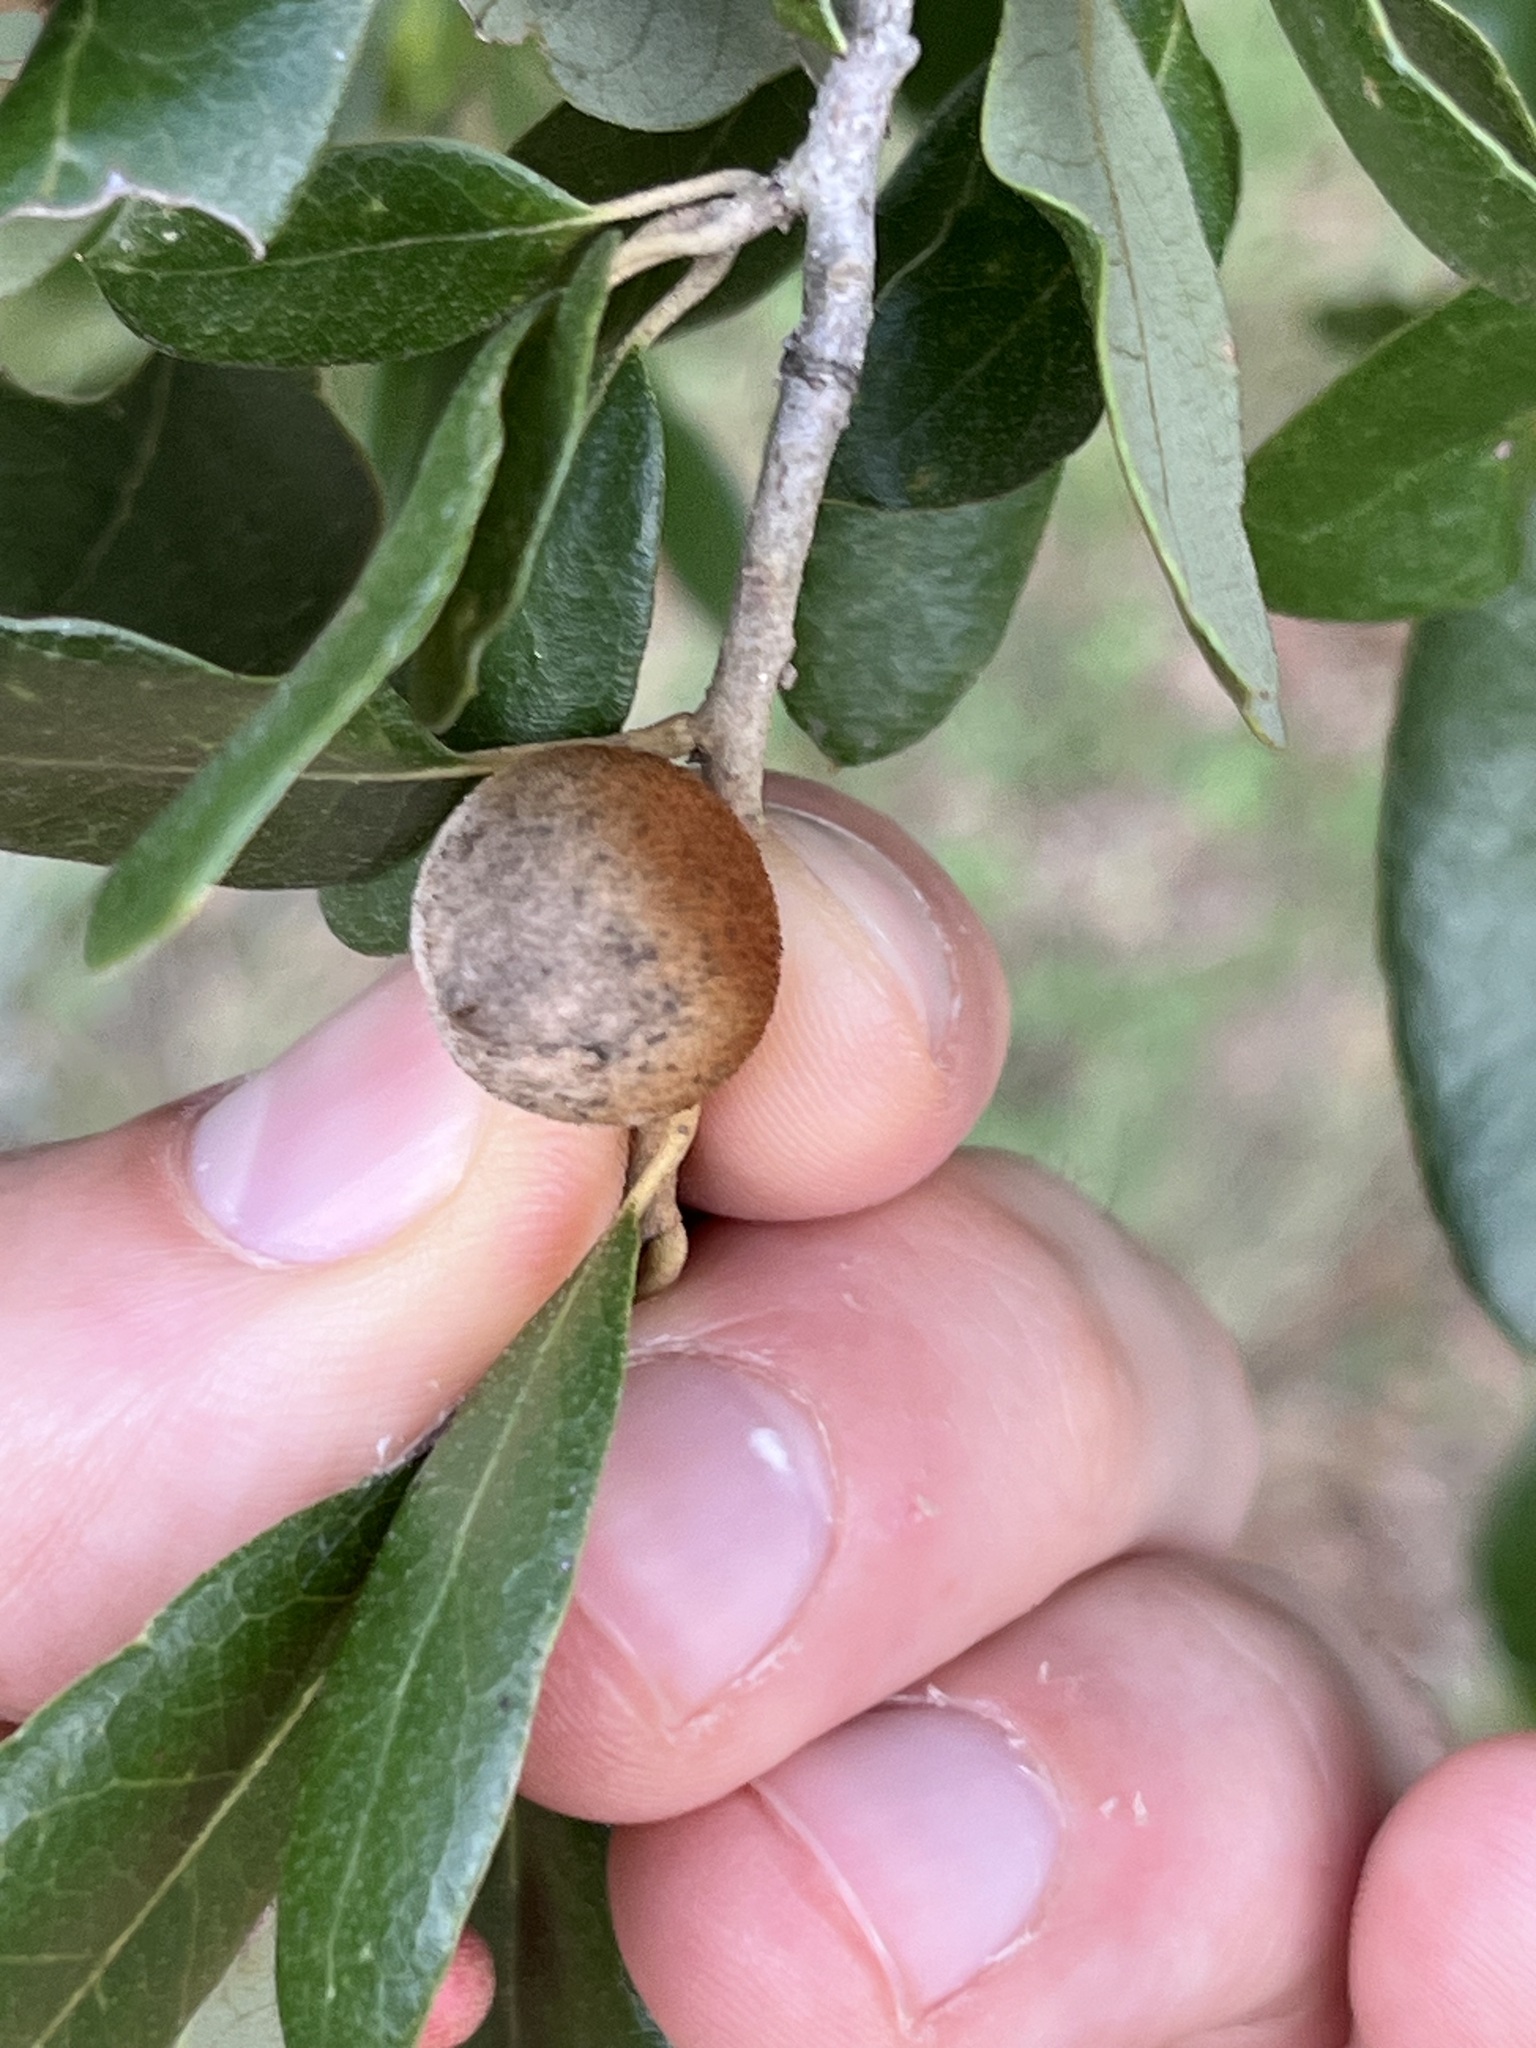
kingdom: Animalia
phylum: Arthropoda
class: Insecta
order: Hymenoptera
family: Cynipidae
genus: Disholcaspis
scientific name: Disholcaspis
